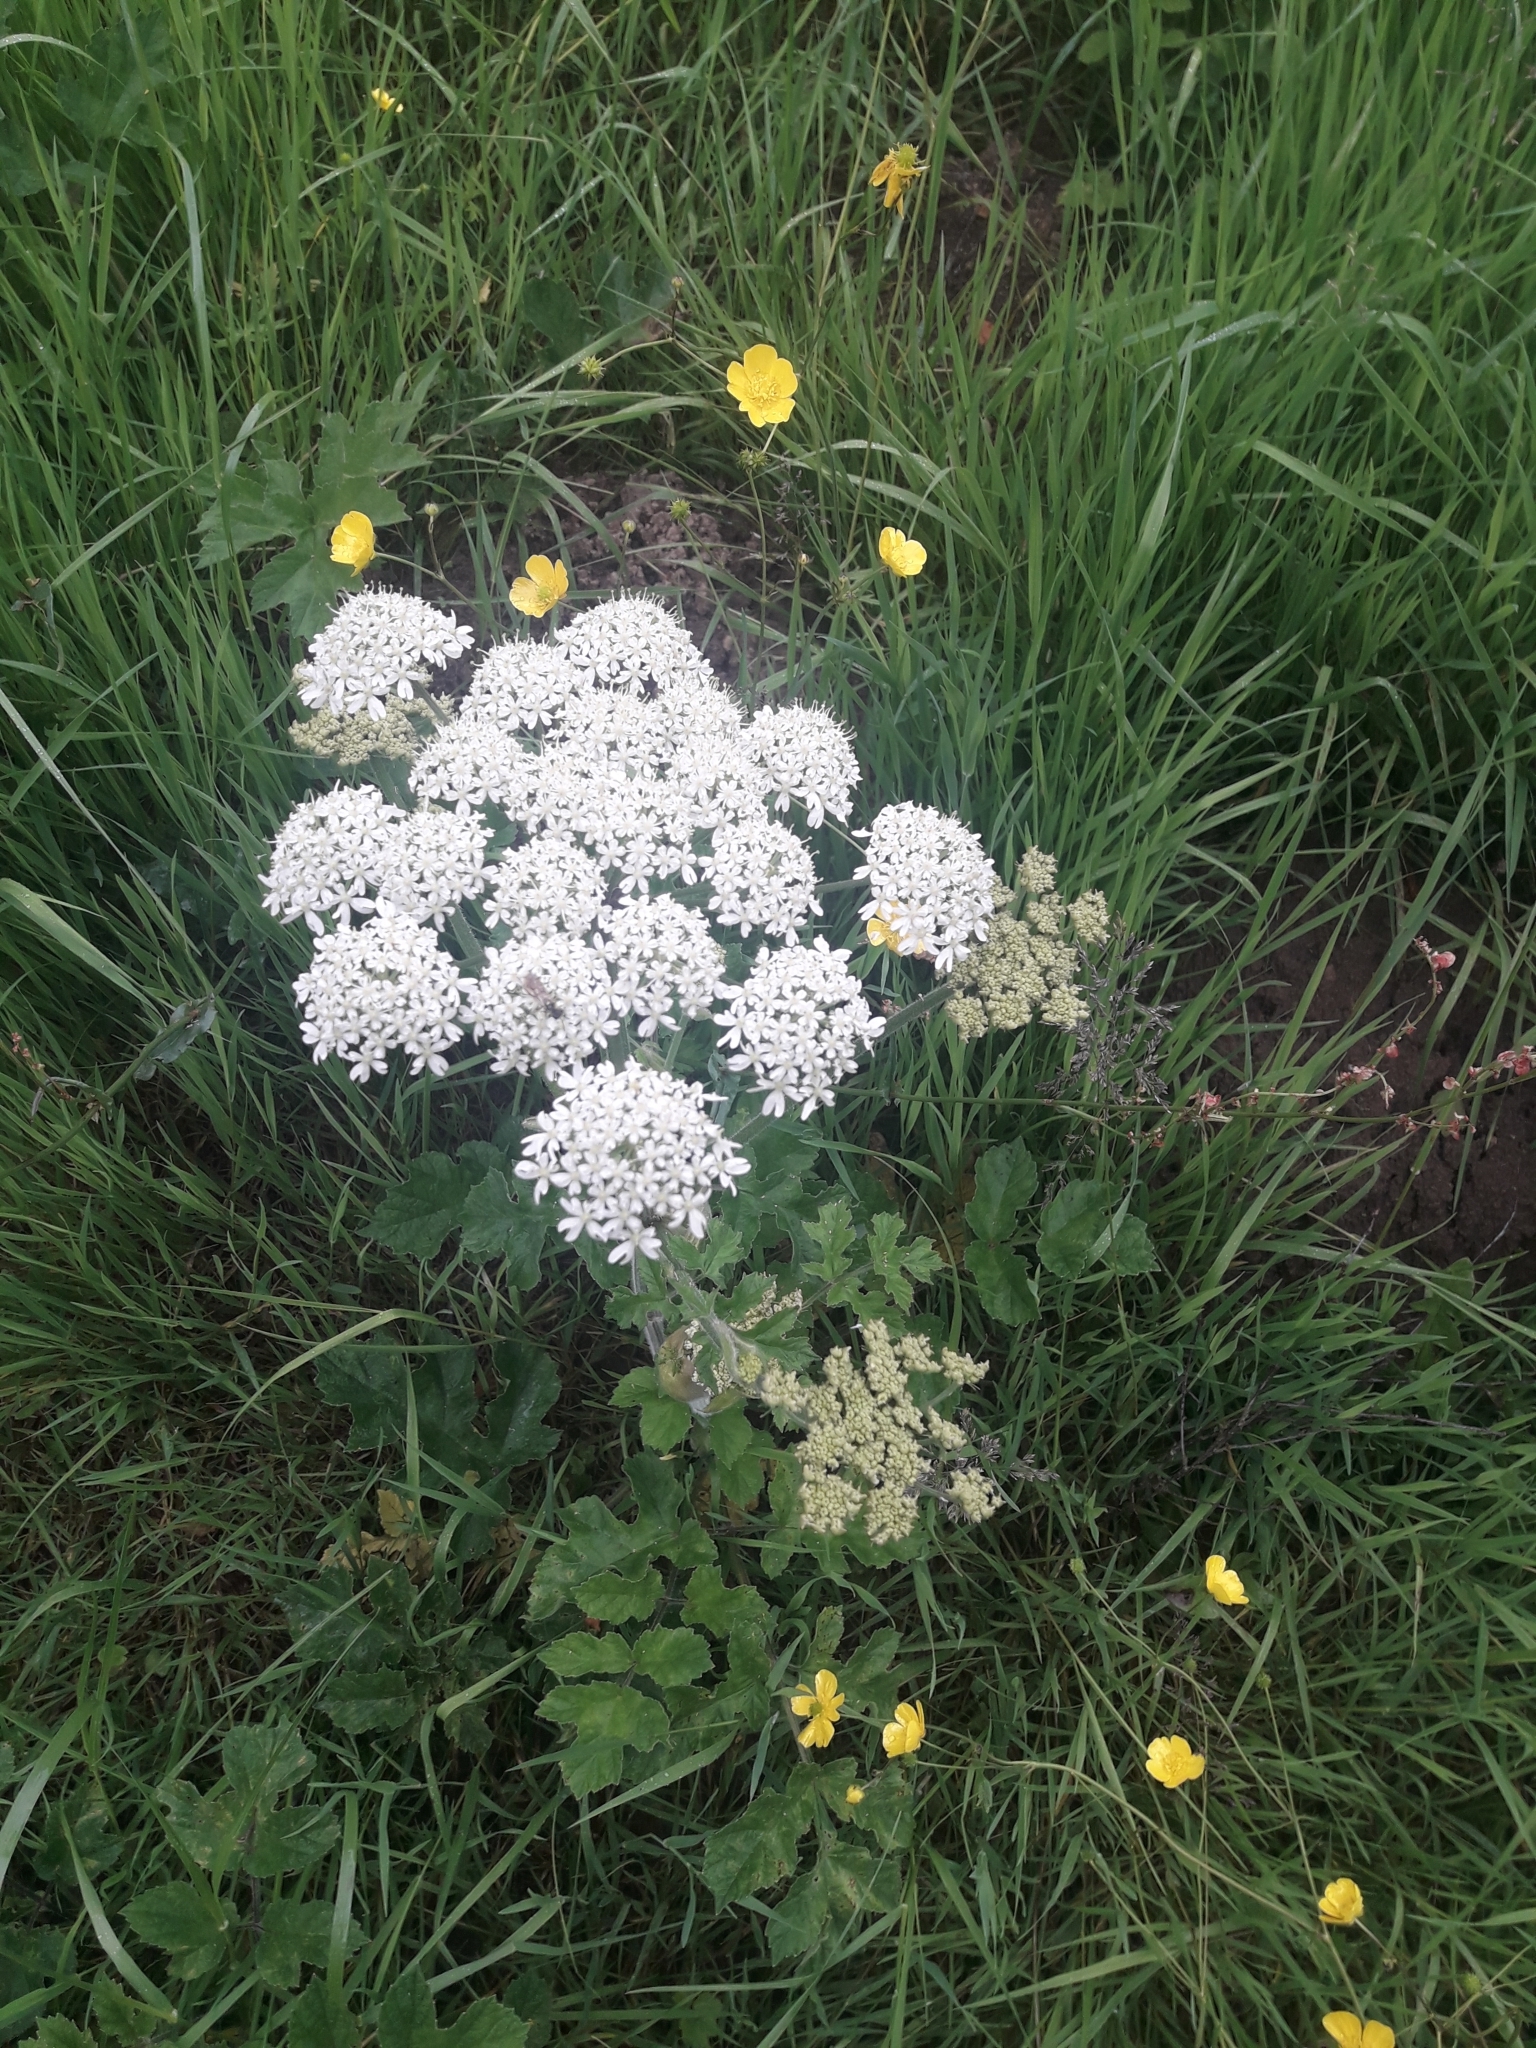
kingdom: Plantae
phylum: Tracheophyta
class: Magnoliopsida
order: Apiales
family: Apiaceae
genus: Heracleum
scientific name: Heracleum sphondylium
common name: Hogweed
